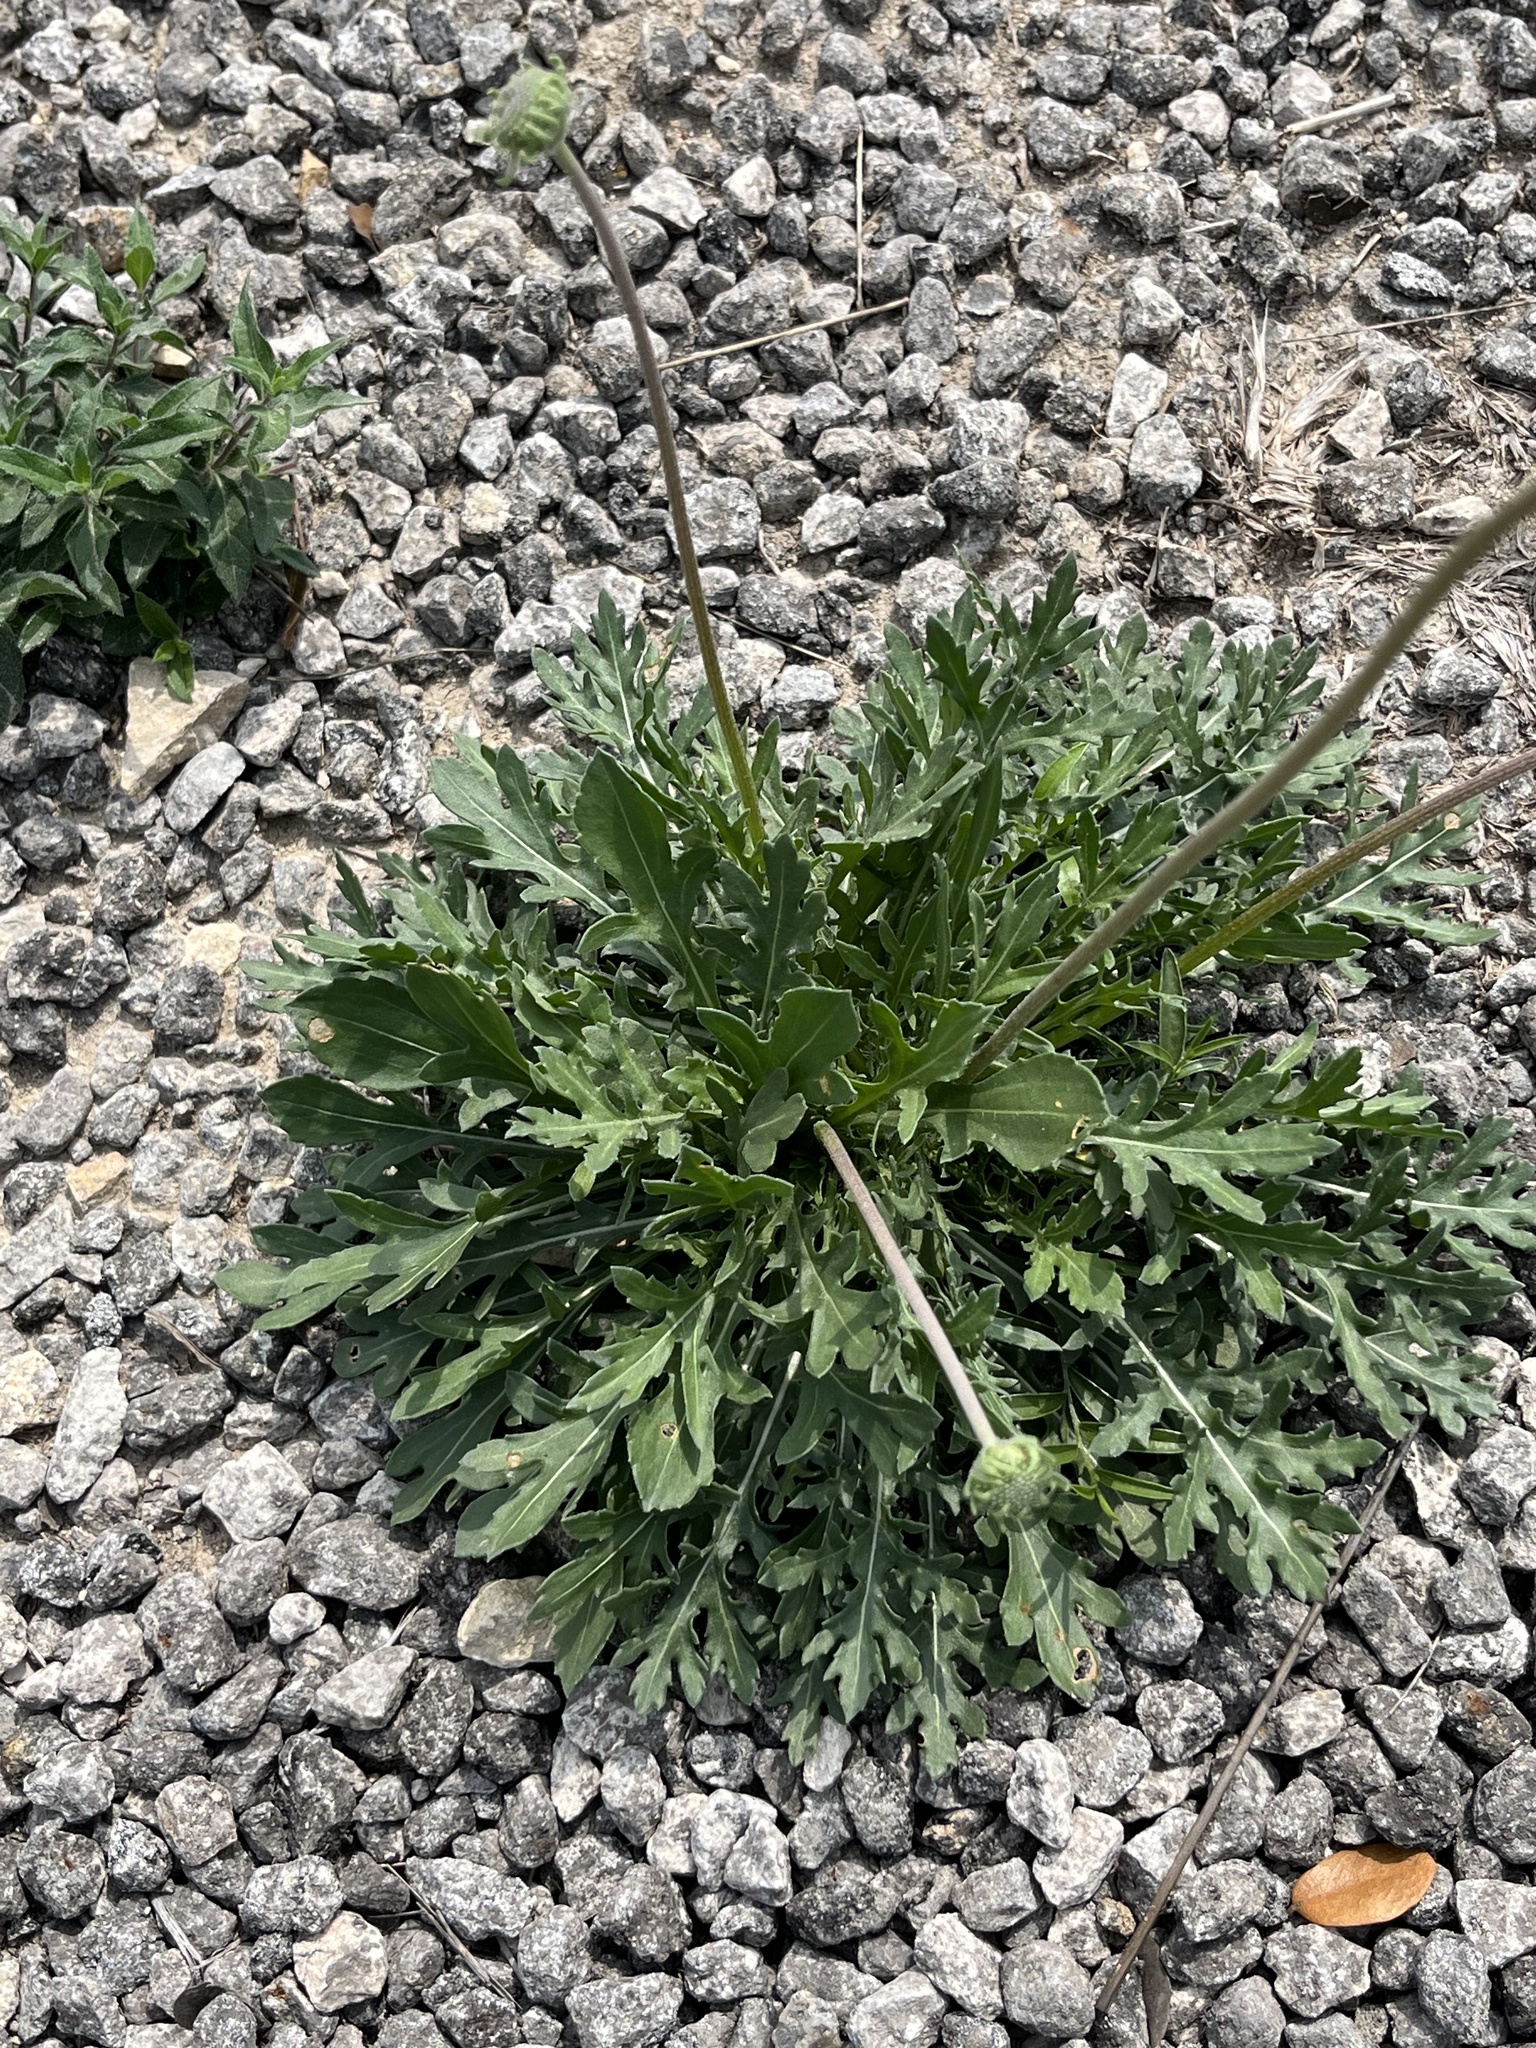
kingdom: Plantae
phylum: Tracheophyta
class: Magnoliopsida
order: Asterales
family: Asteraceae
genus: Gaillardia
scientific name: Gaillardia suavis
